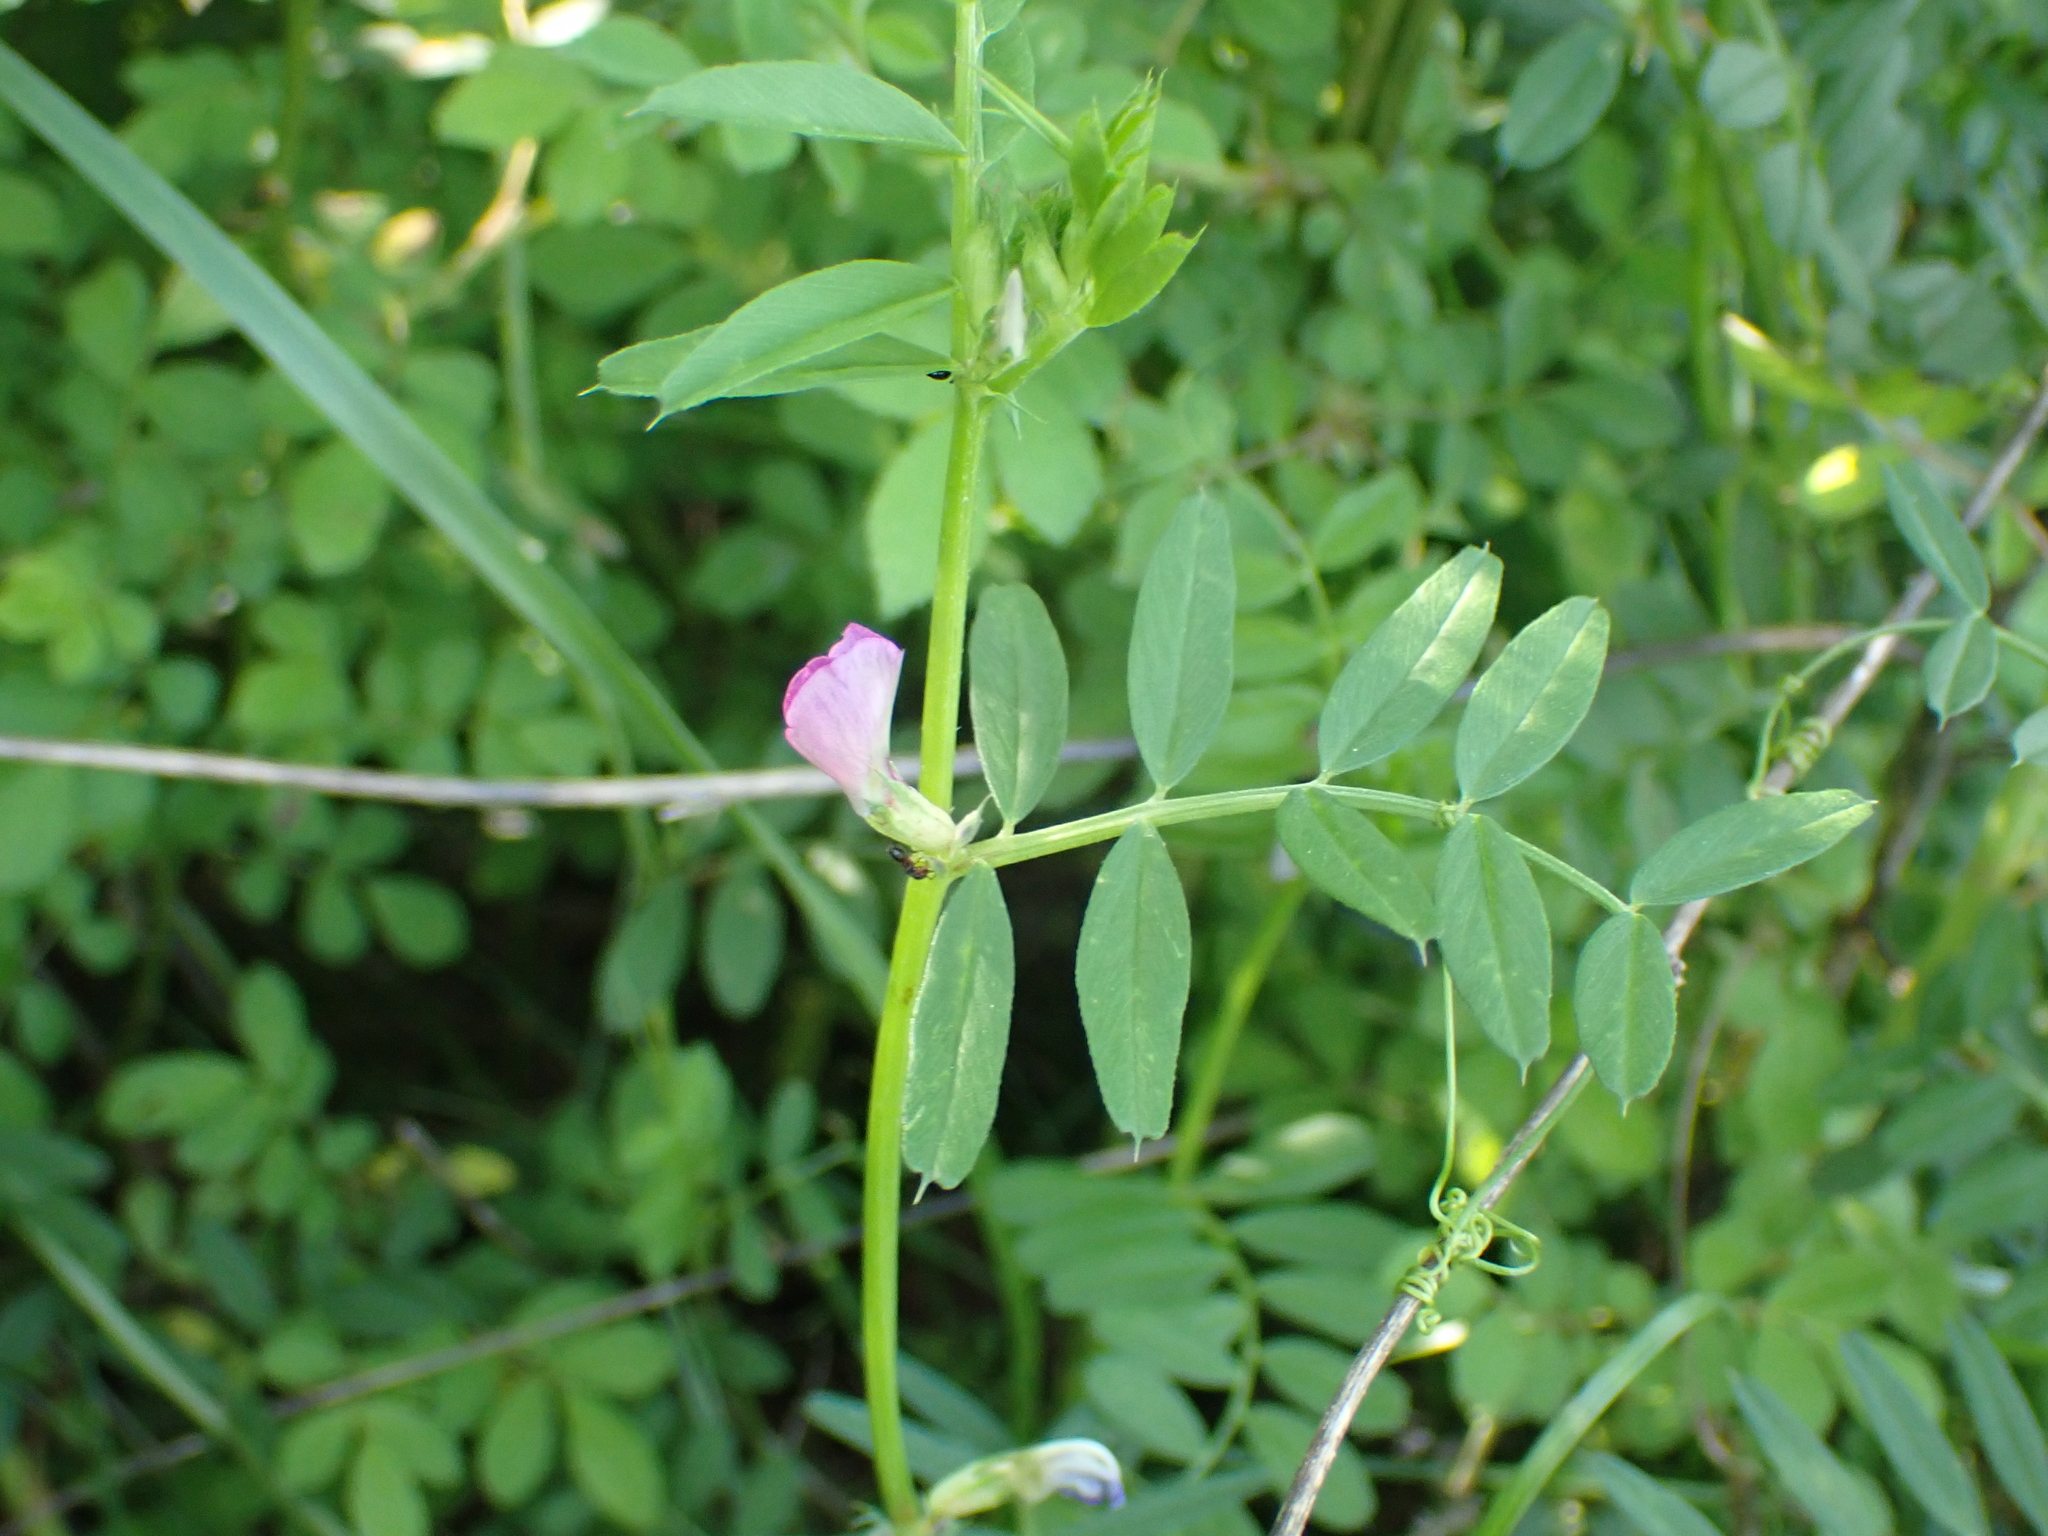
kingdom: Plantae
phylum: Tracheophyta
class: Magnoliopsida
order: Fabales
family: Fabaceae
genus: Vicia
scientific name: Vicia sativa
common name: Garden vetch
